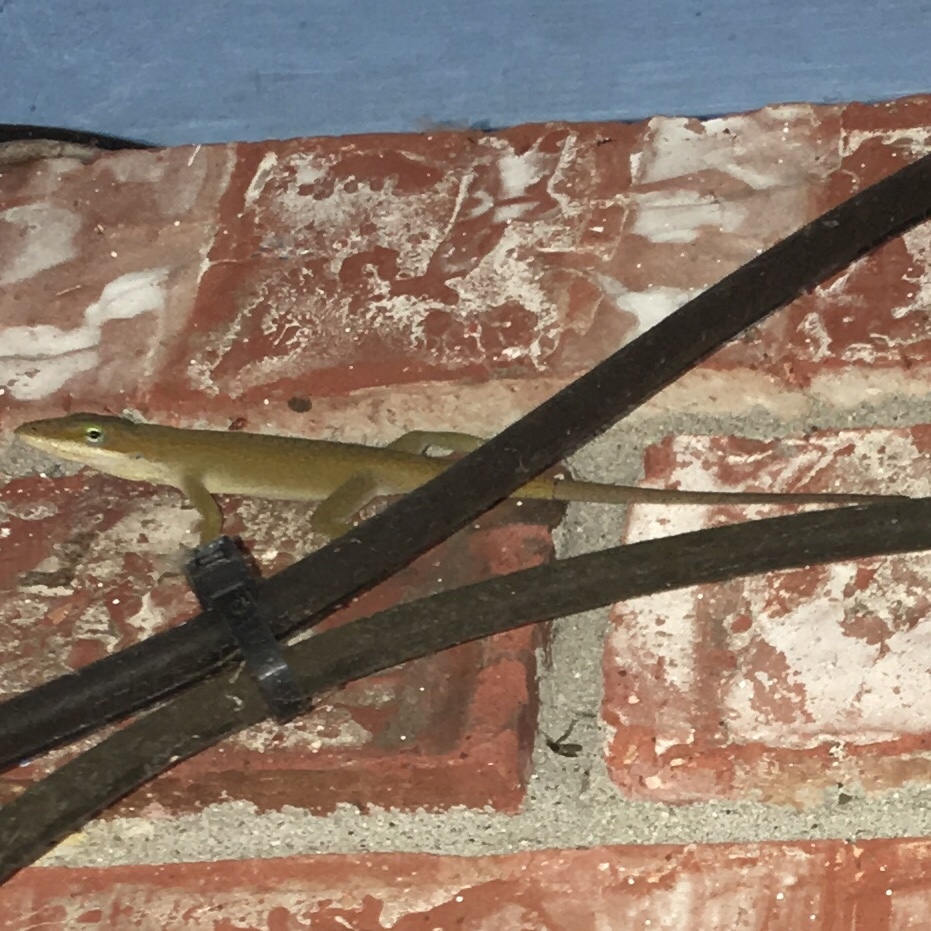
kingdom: Animalia
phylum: Chordata
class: Squamata
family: Dactyloidae
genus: Anolis
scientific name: Anolis carolinensis
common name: Green anole
